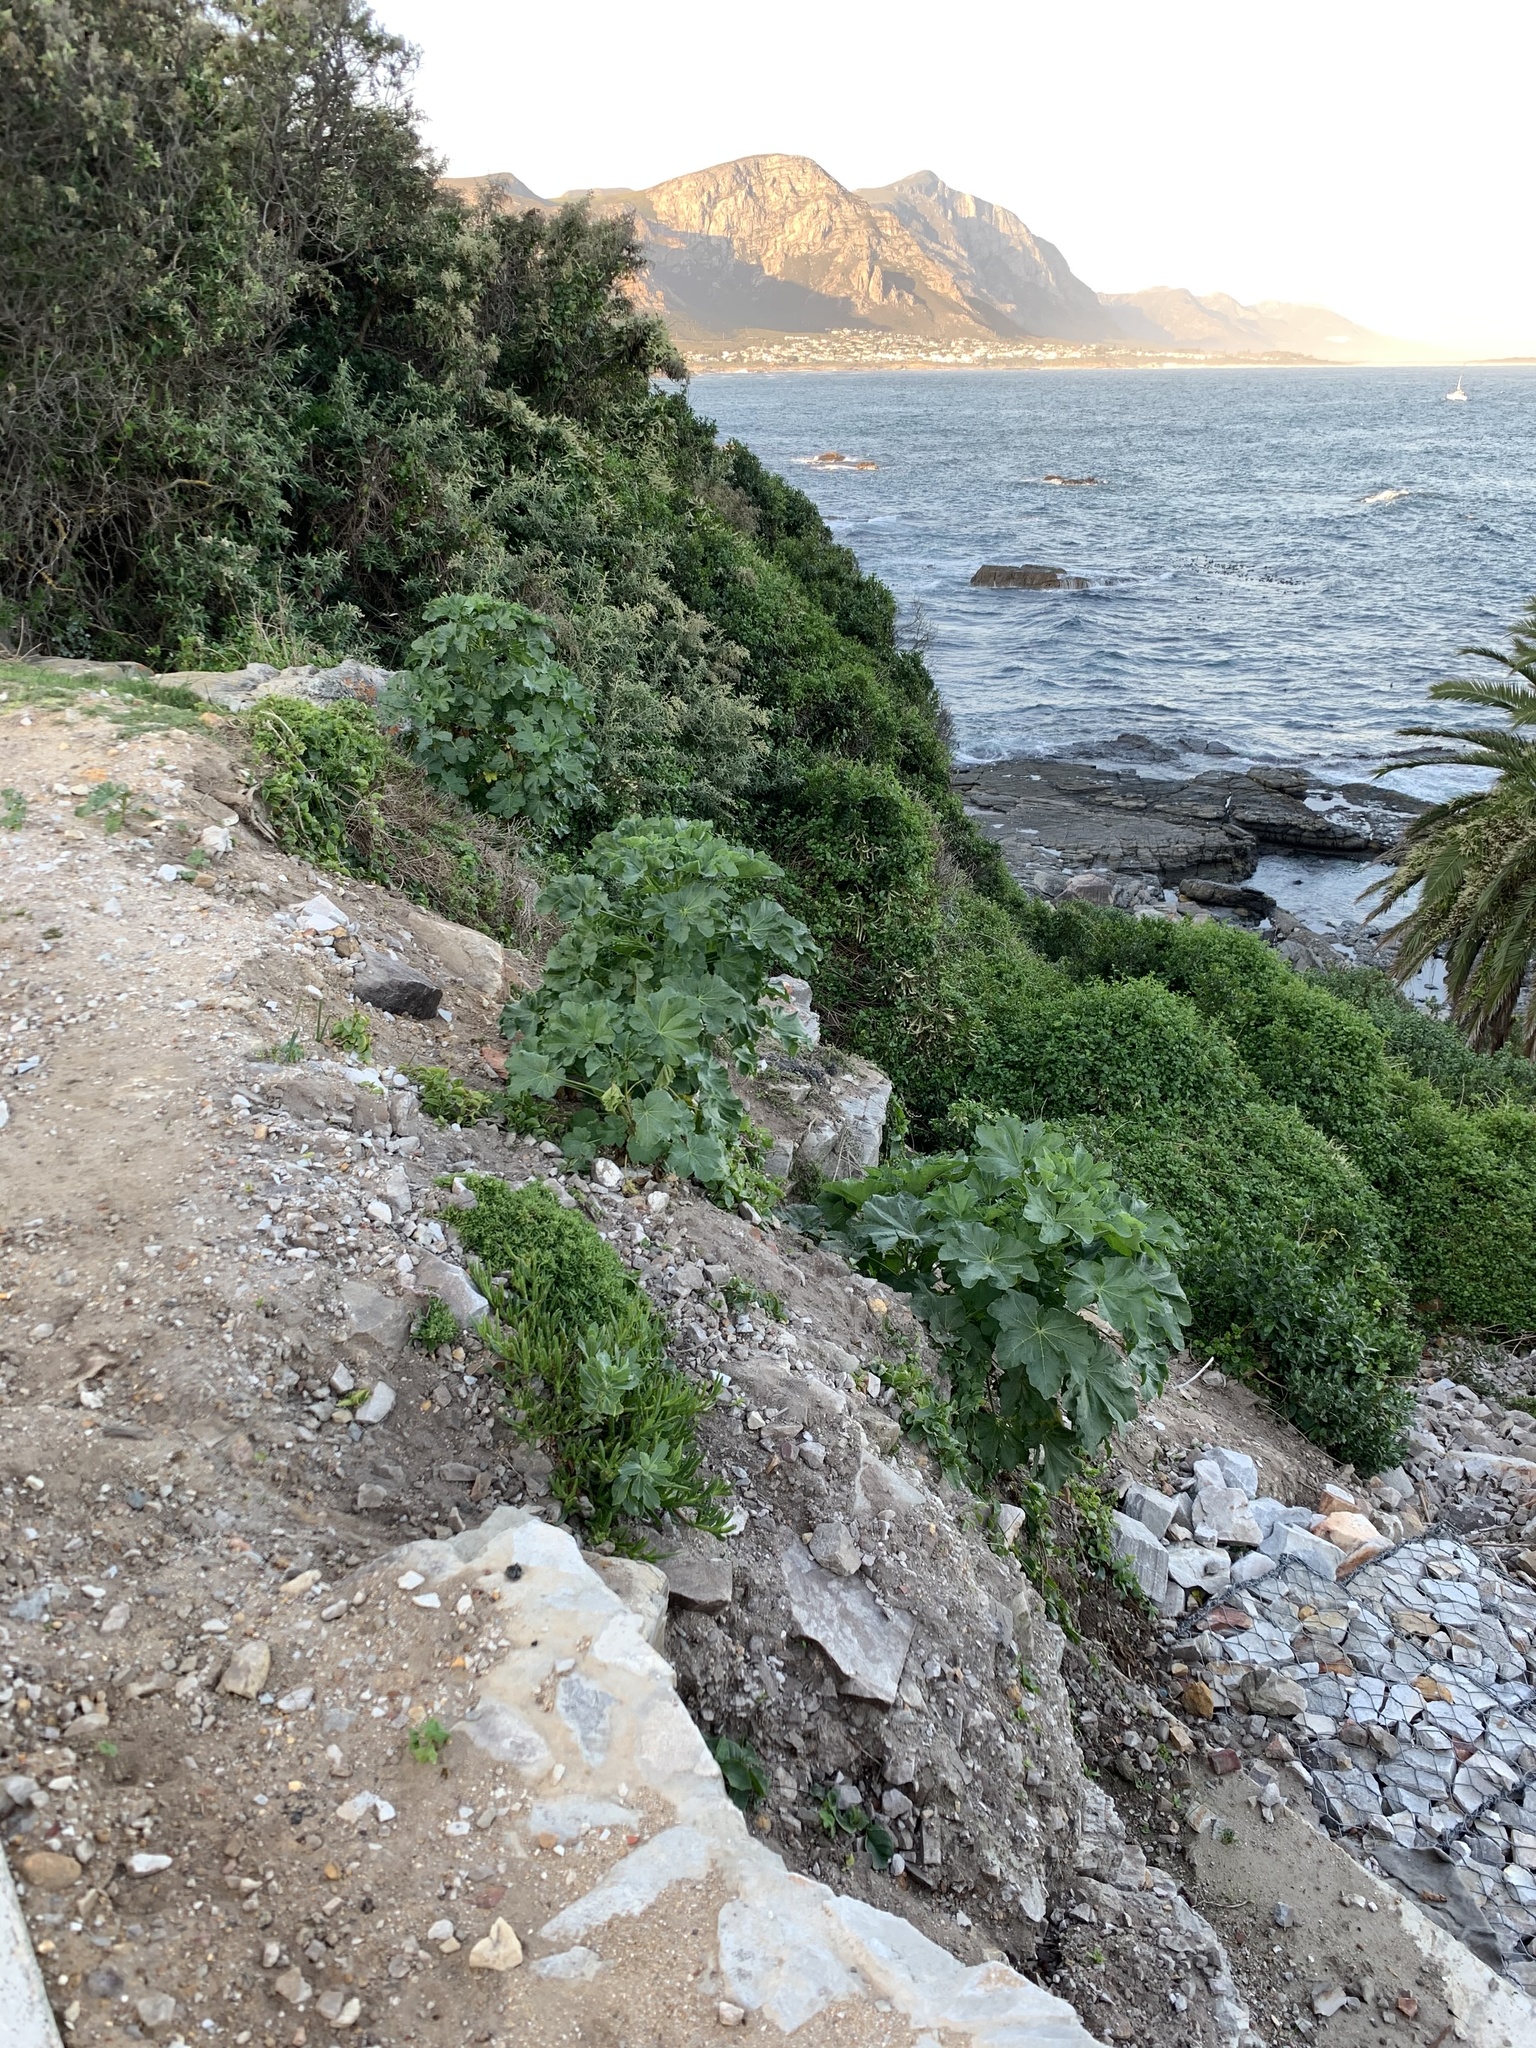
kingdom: Plantae
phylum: Tracheophyta
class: Magnoliopsida
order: Malvales
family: Malvaceae
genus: Malva
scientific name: Malva arborea
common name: Tree mallow
